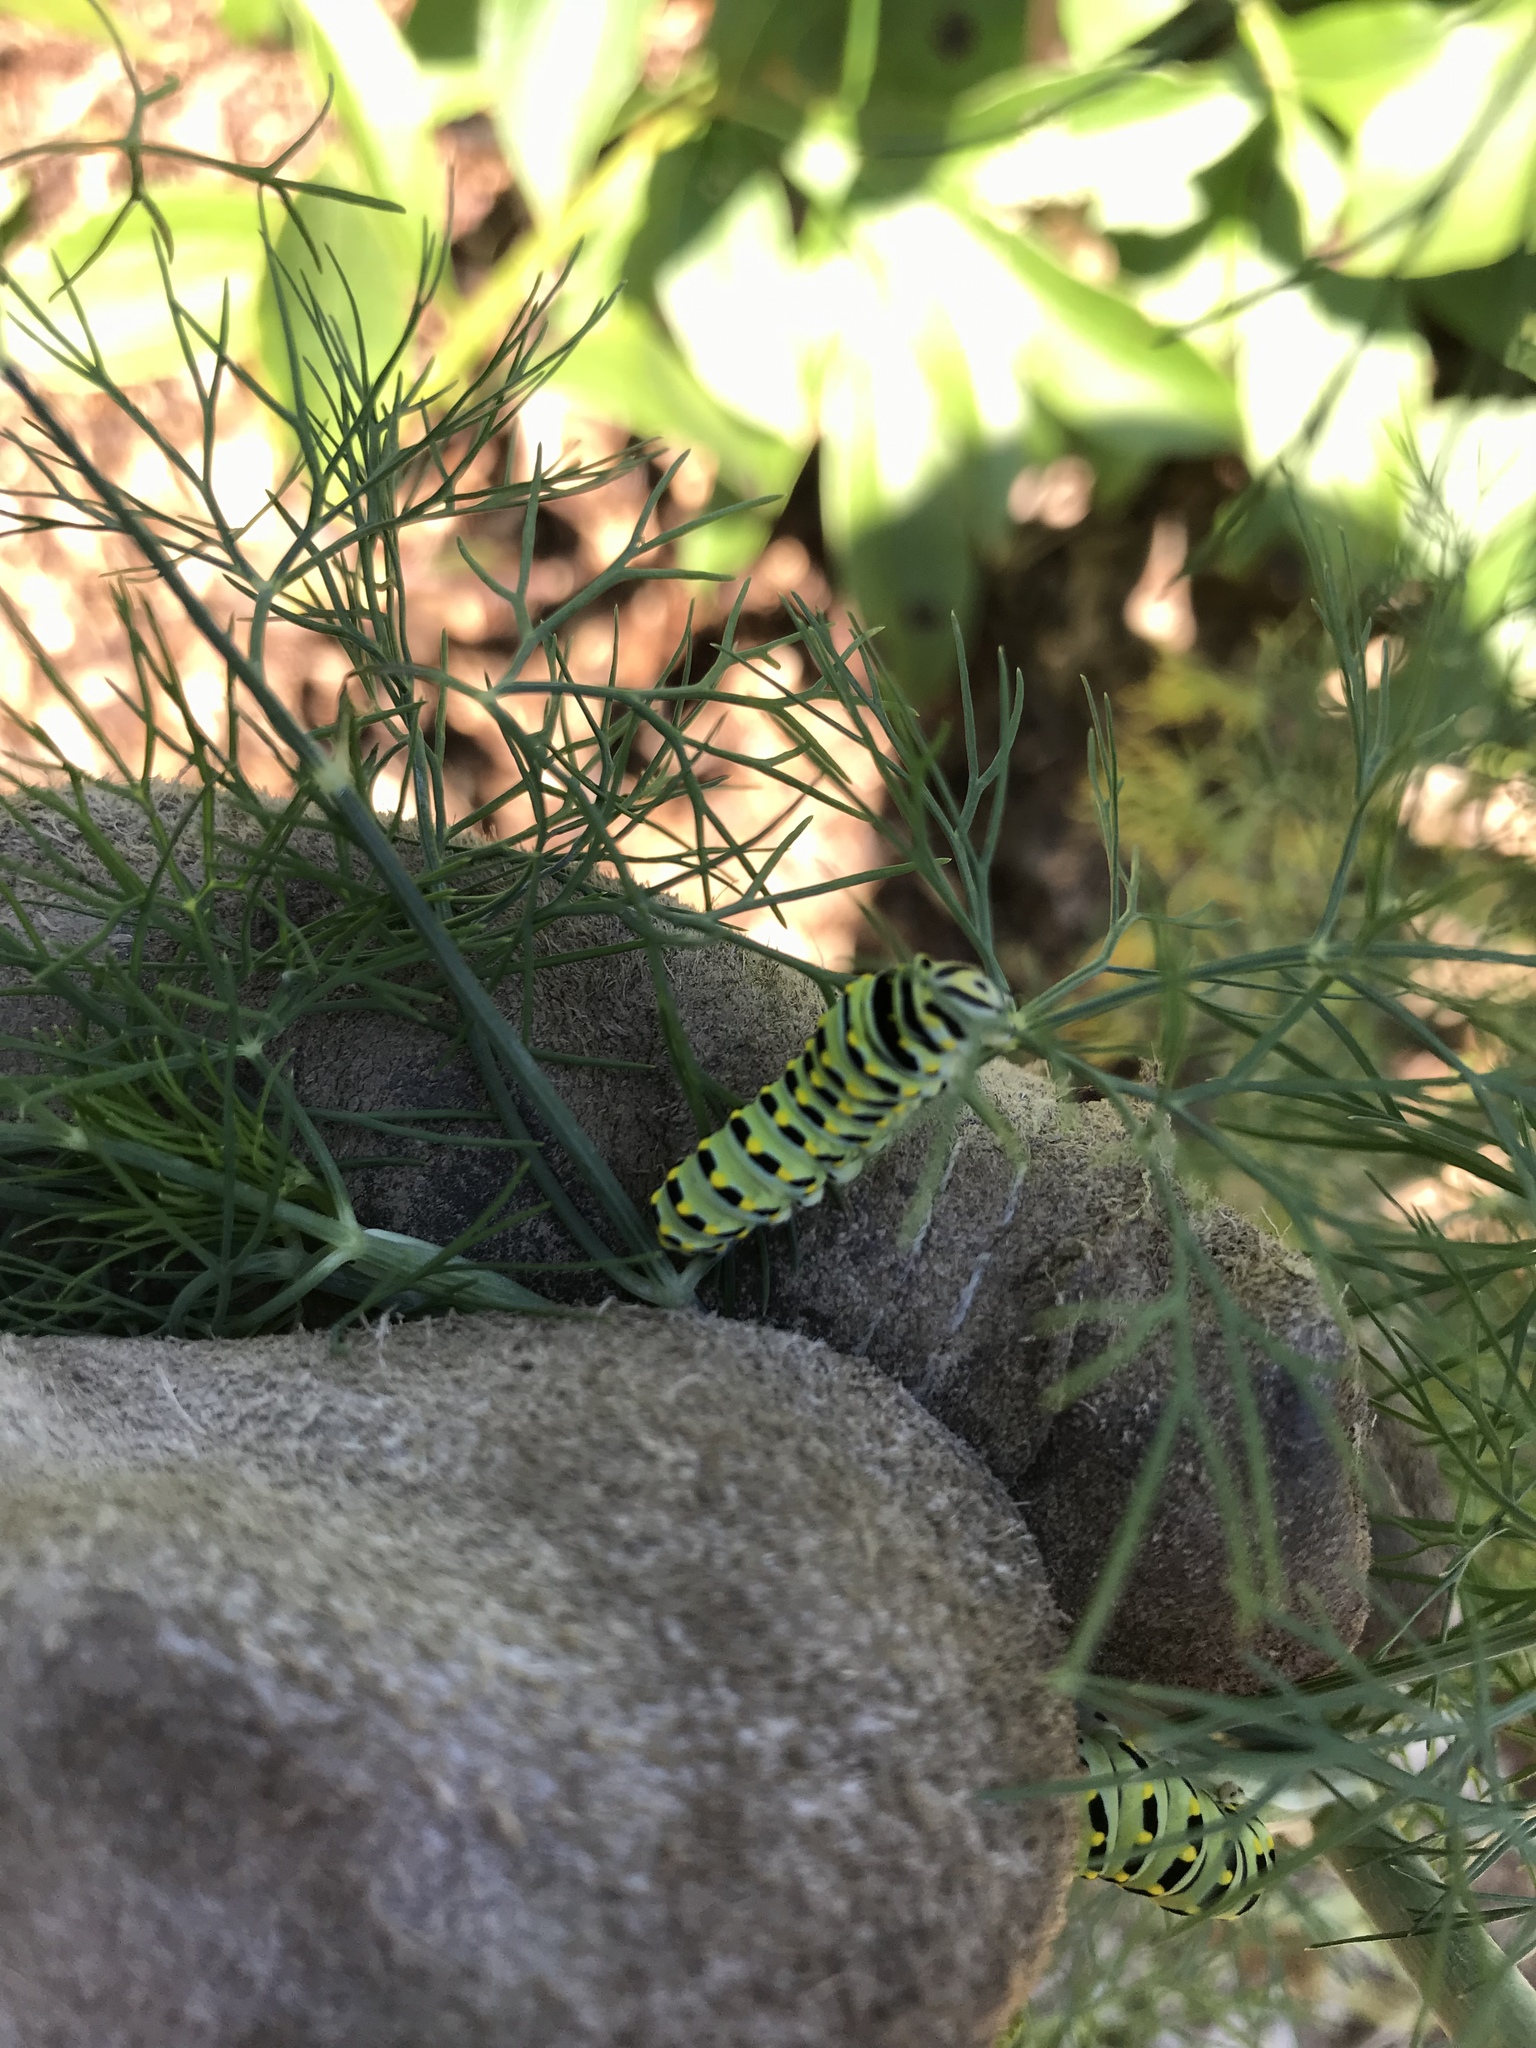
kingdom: Animalia
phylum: Arthropoda
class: Insecta
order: Lepidoptera
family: Papilionidae
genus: Papilio
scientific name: Papilio polyxenes
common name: Black swallowtail
